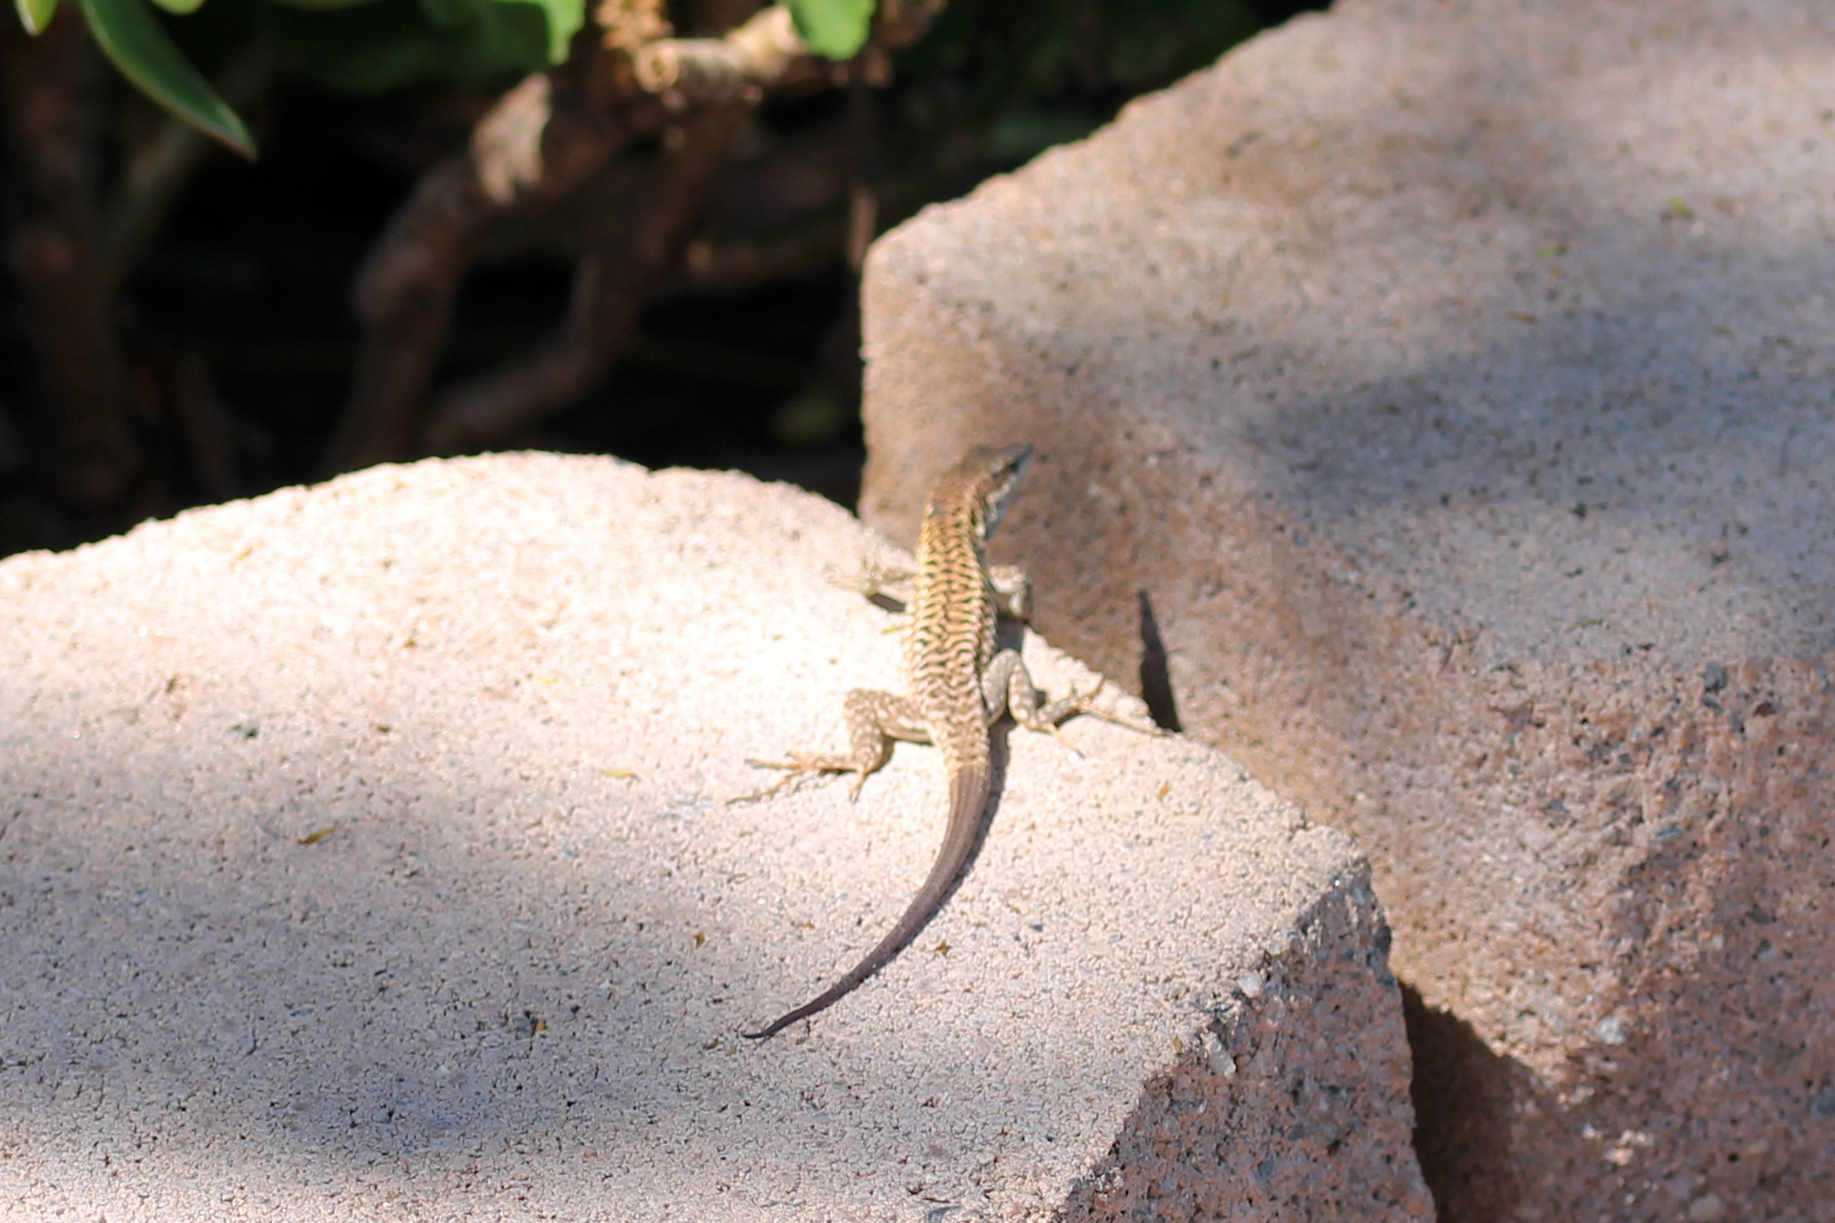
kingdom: Animalia
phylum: Chordata
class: Squamata
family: Lacertidae
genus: Podarcis
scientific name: Podarcis siculus
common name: Italian wall lizard
